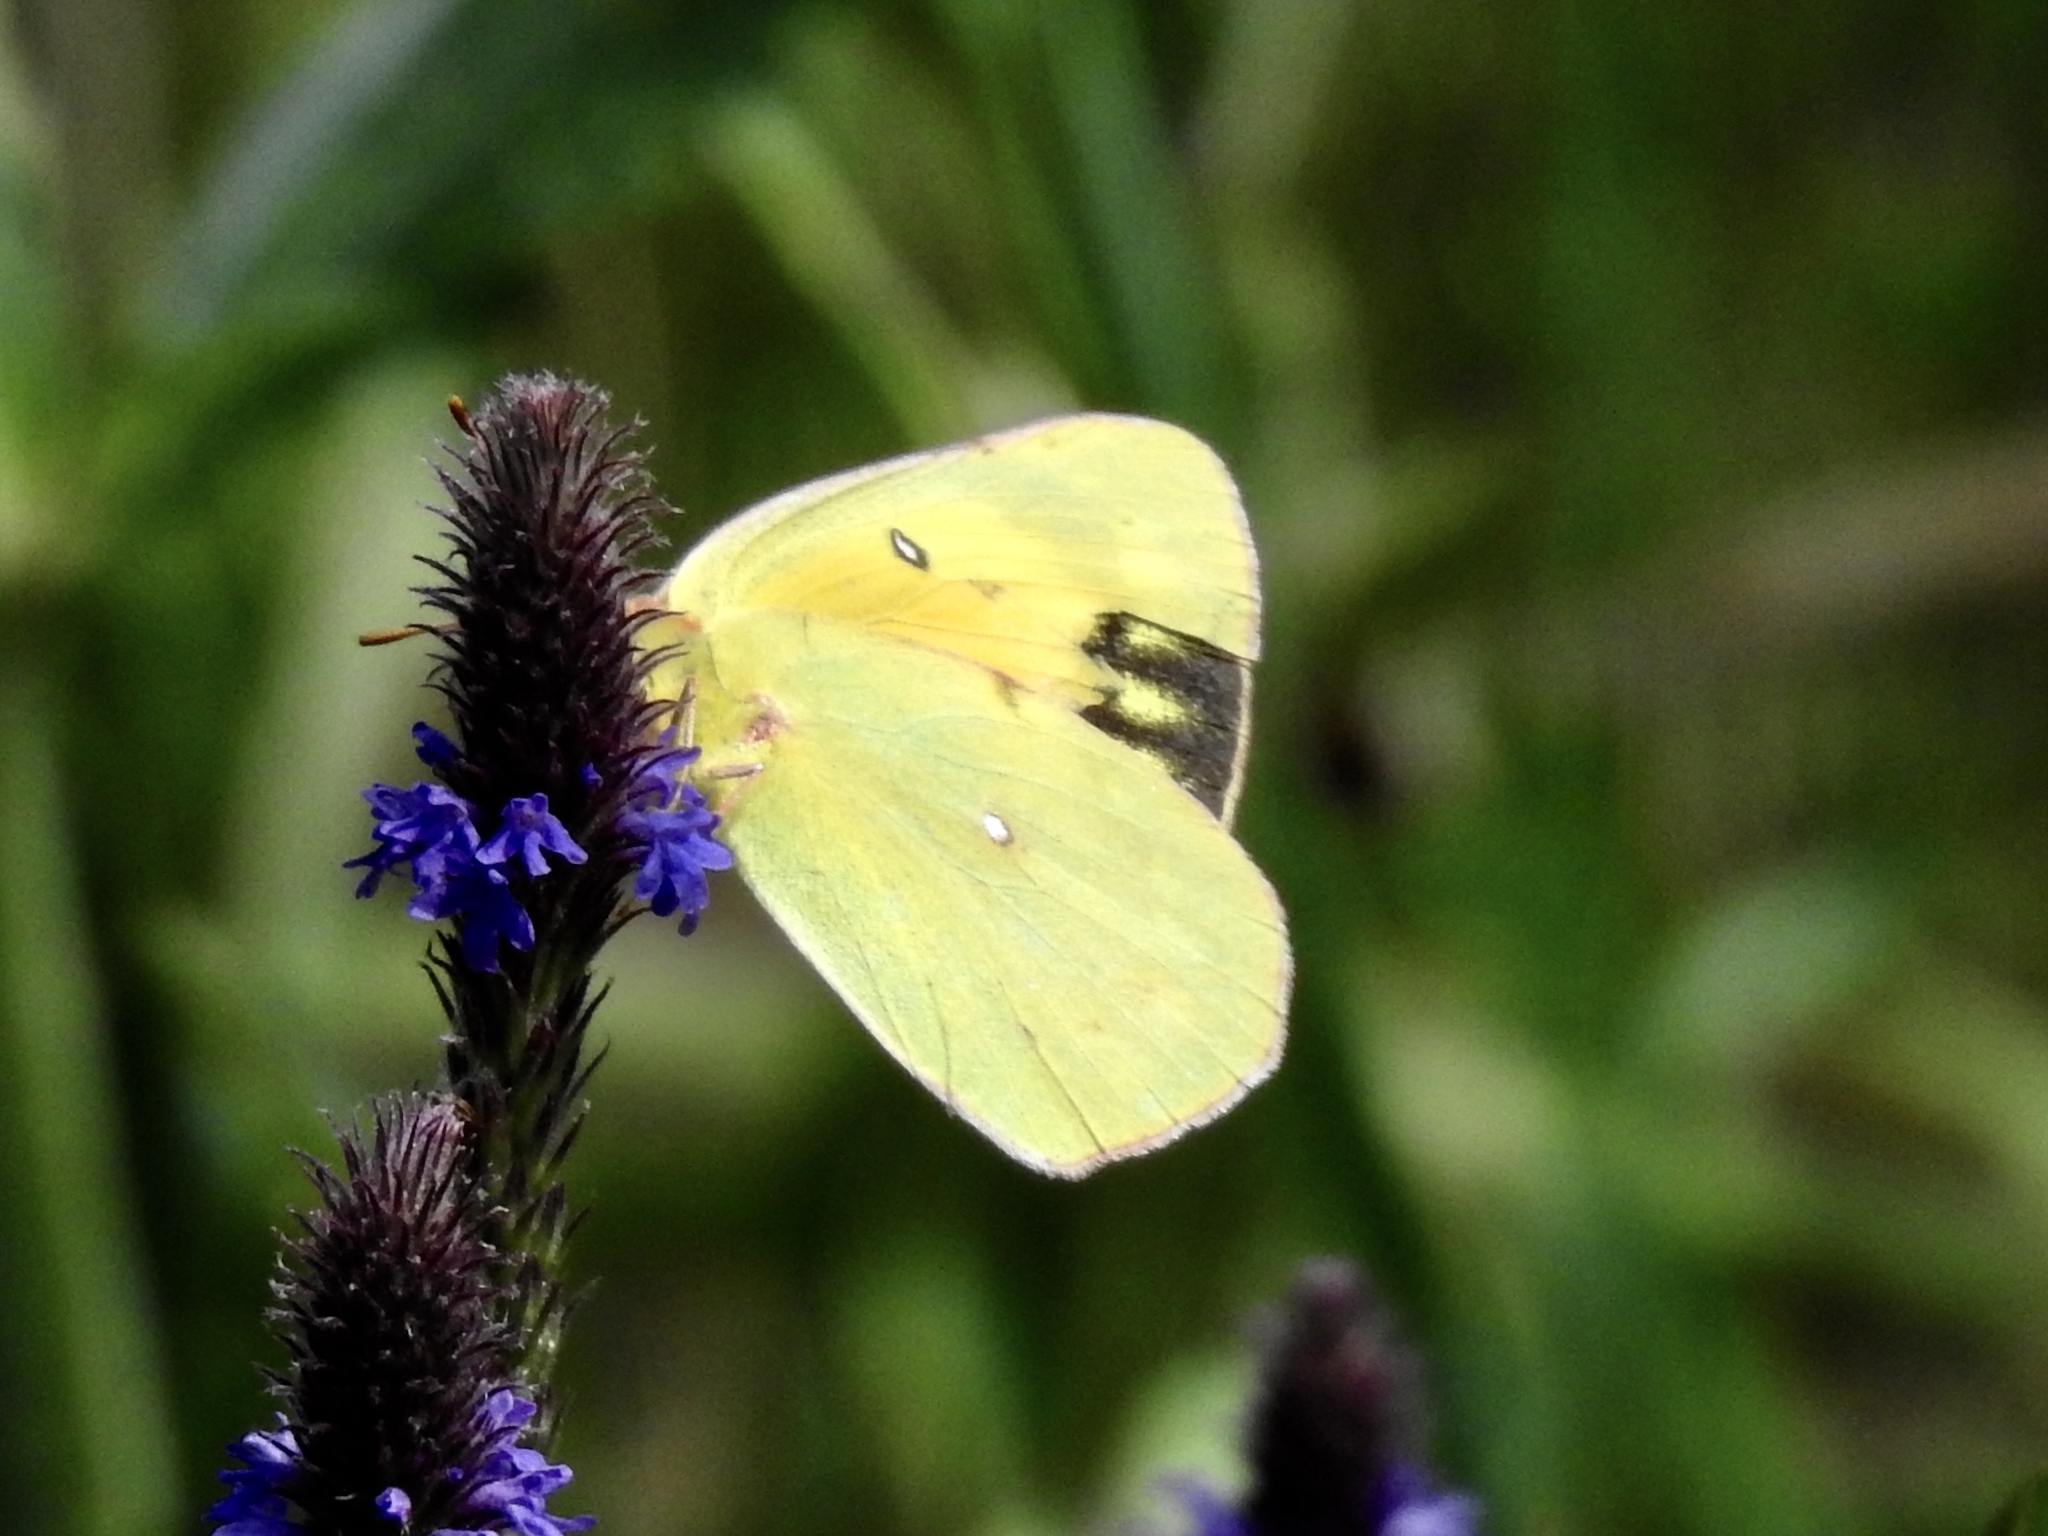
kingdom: Animalia
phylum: Arthropoda
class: Insecta
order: Lepidoptera
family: Pieridae
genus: Colias
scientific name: Colias eurytheme
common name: Alfalfa butterfly
